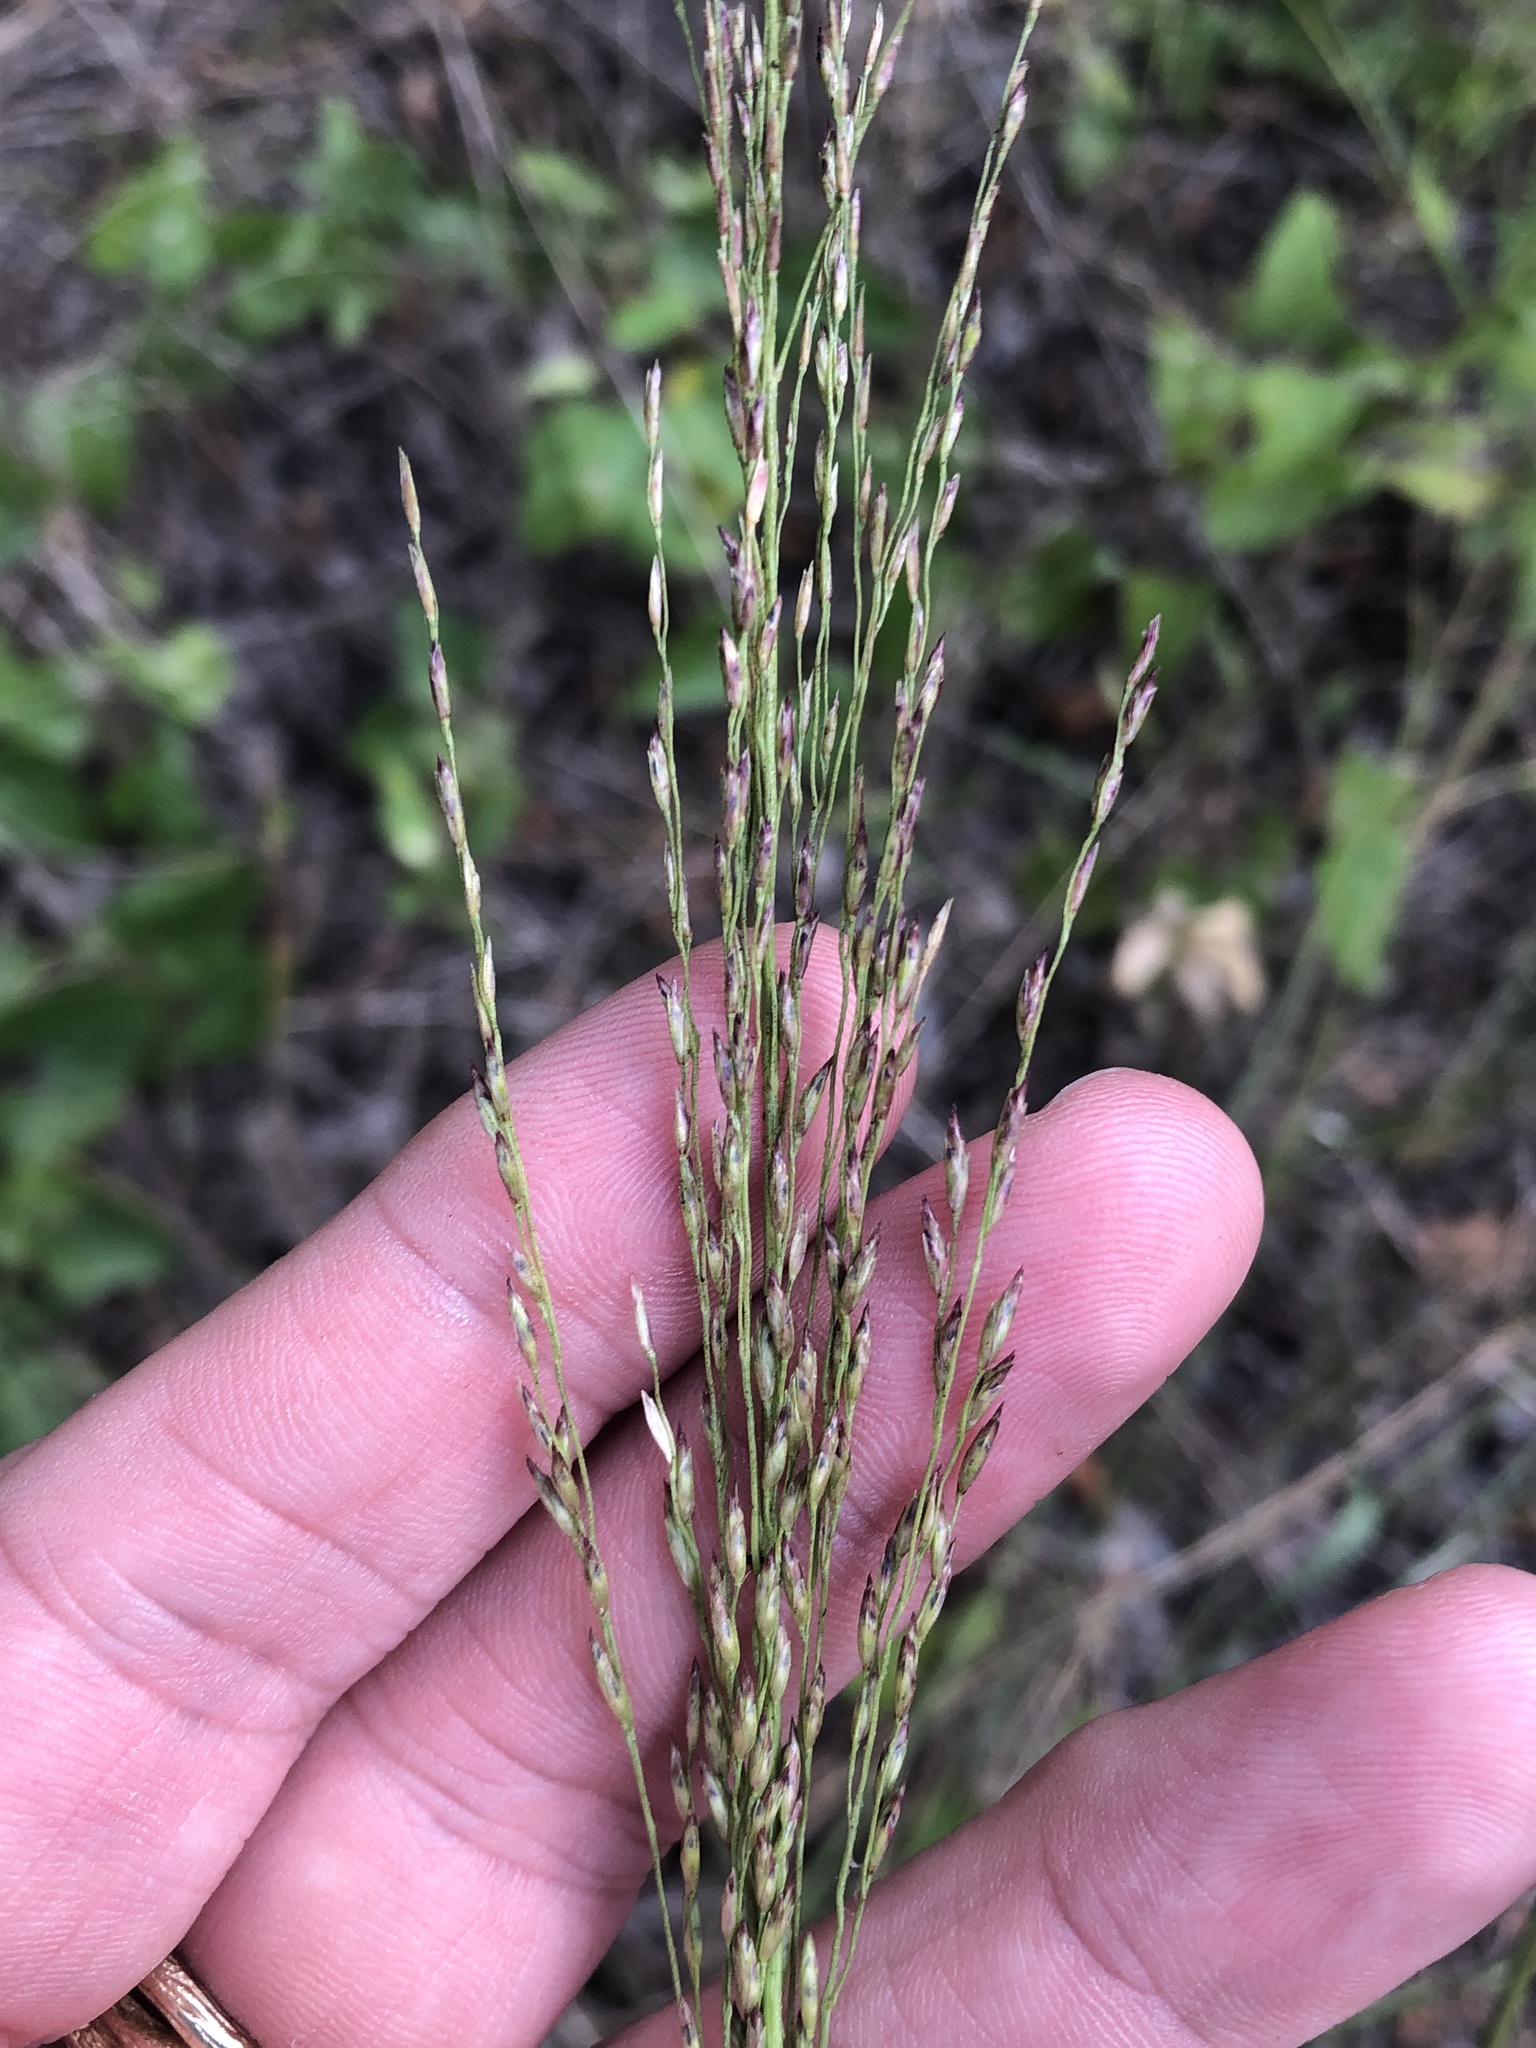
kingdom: Plantae
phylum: Tracheophyta
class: Liliopsida
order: Poales
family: Poaceae
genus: Tridens
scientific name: Tridens flavus
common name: Purpletop
